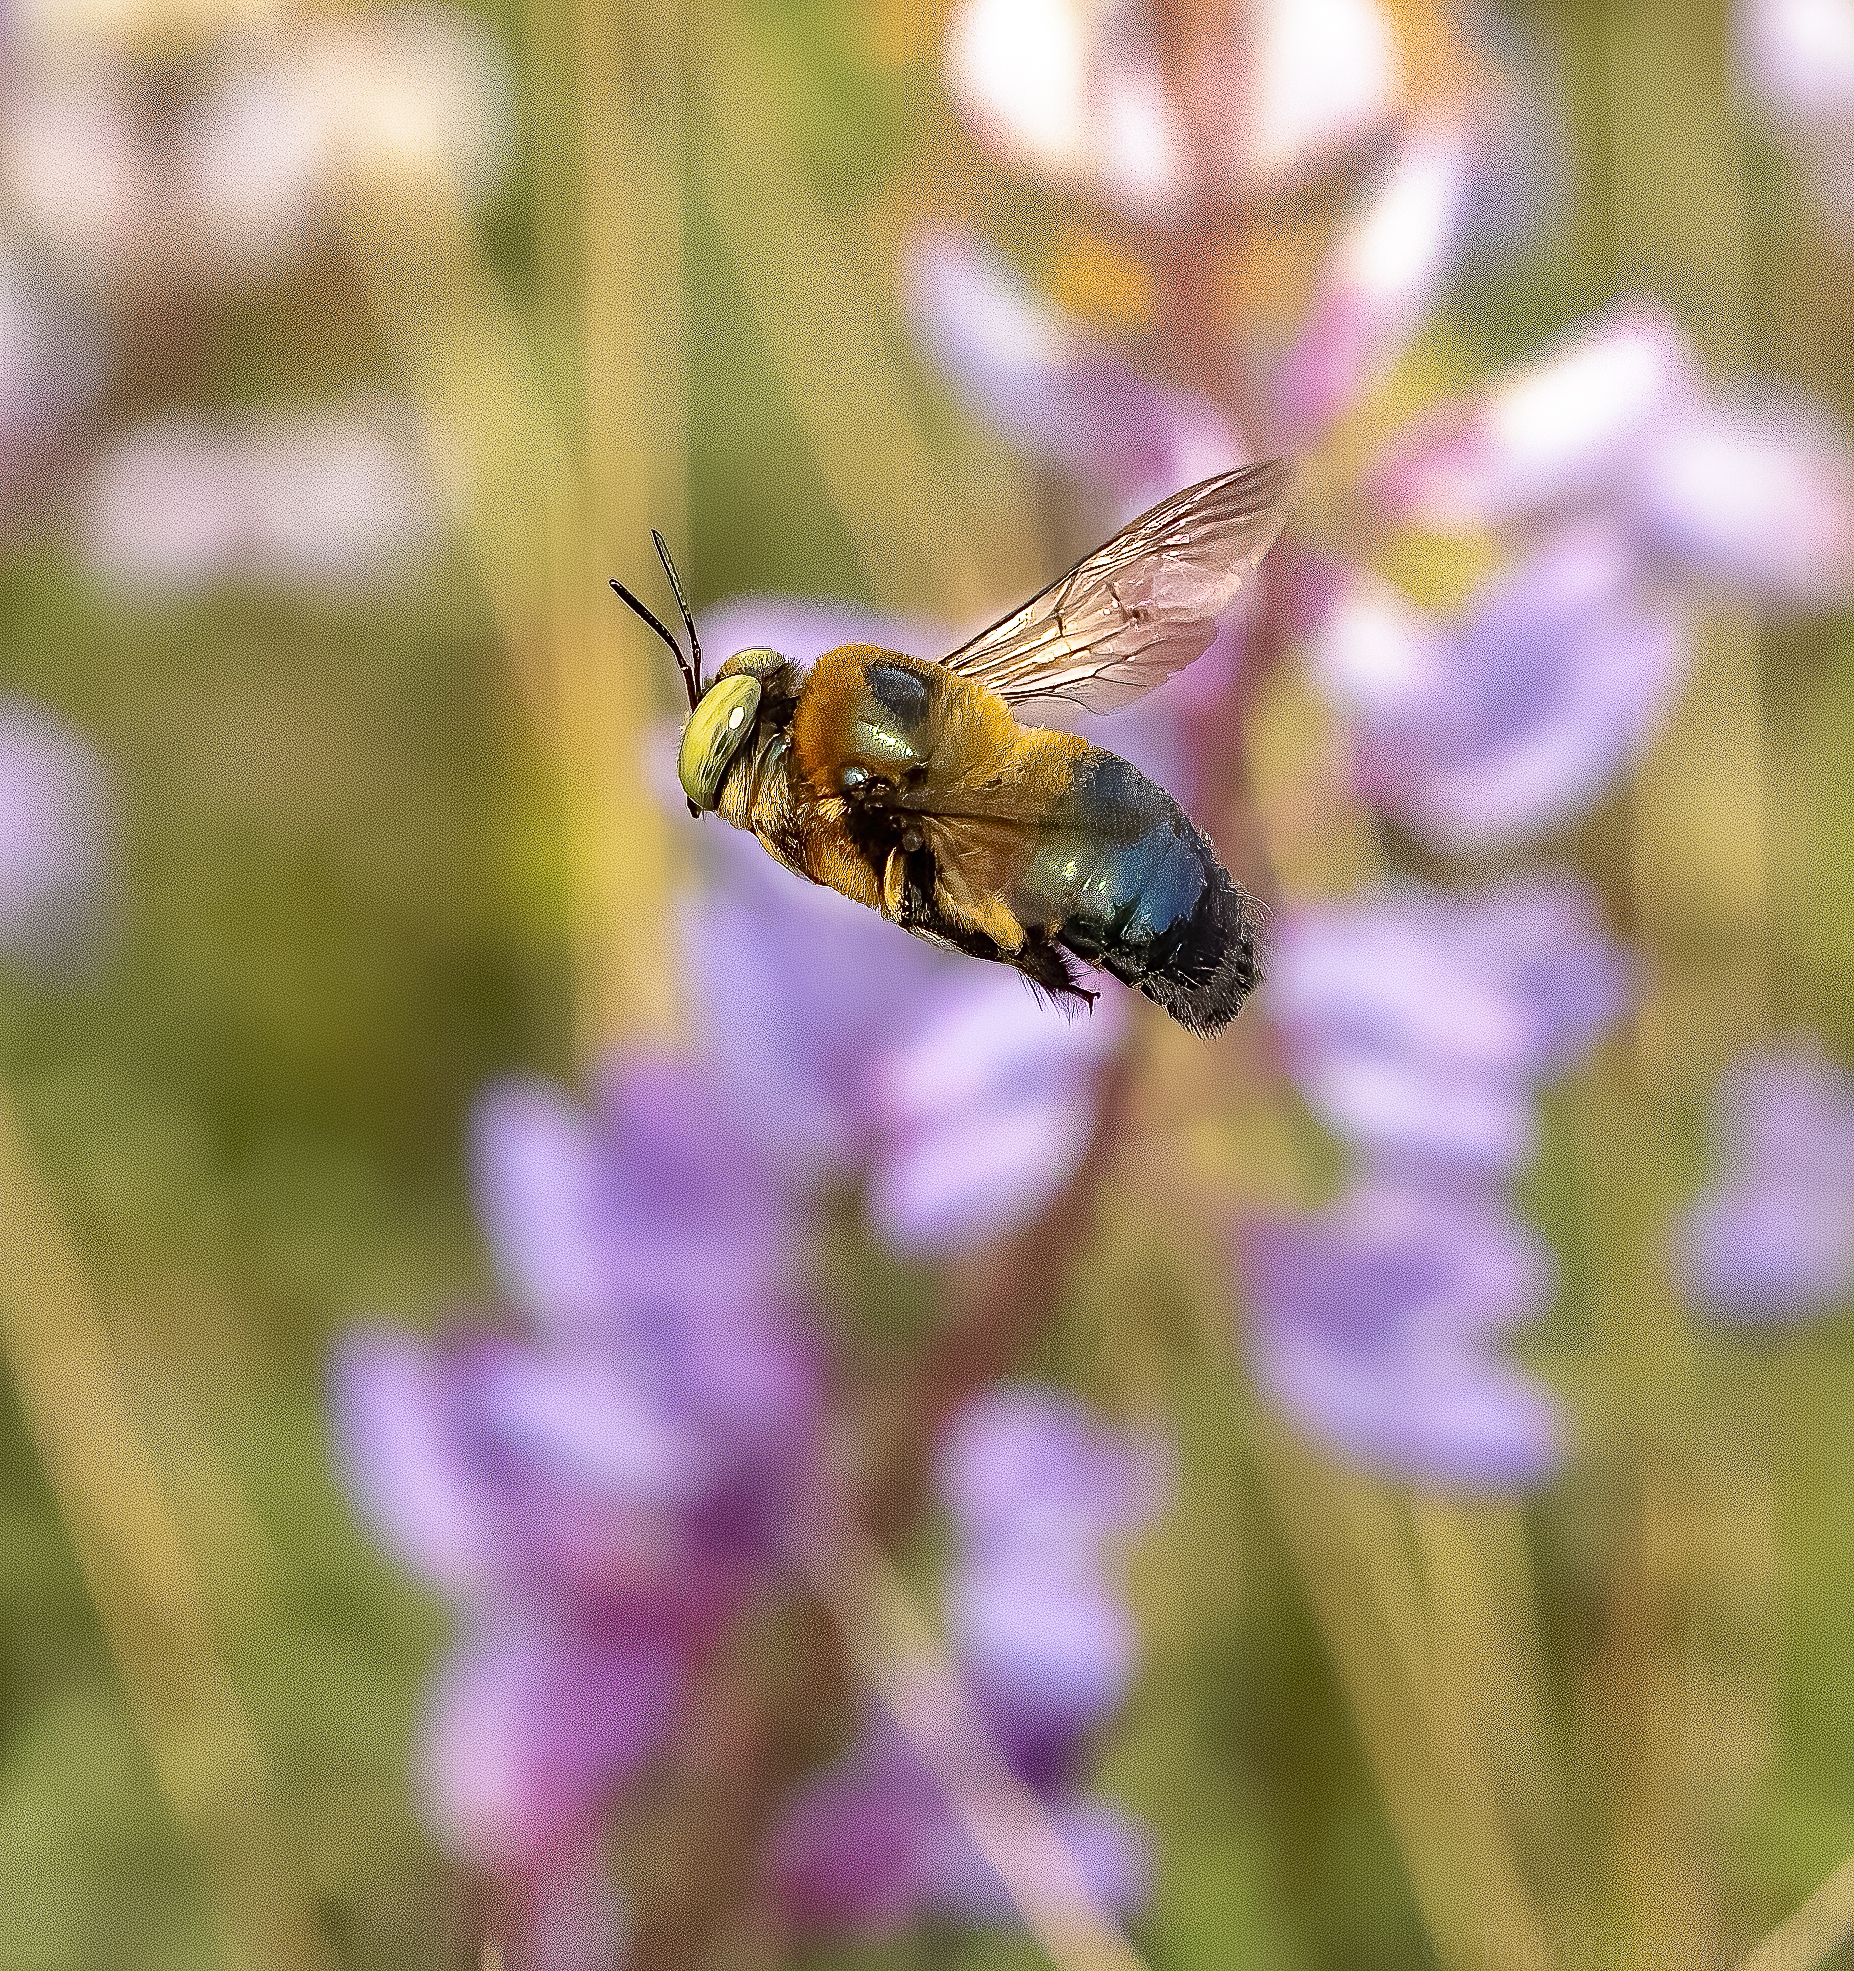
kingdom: Animalia
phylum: Arthropoda
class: Insecta
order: Hymenoptera
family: Apidae
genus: Xylocopa
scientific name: Xylocopa micans
